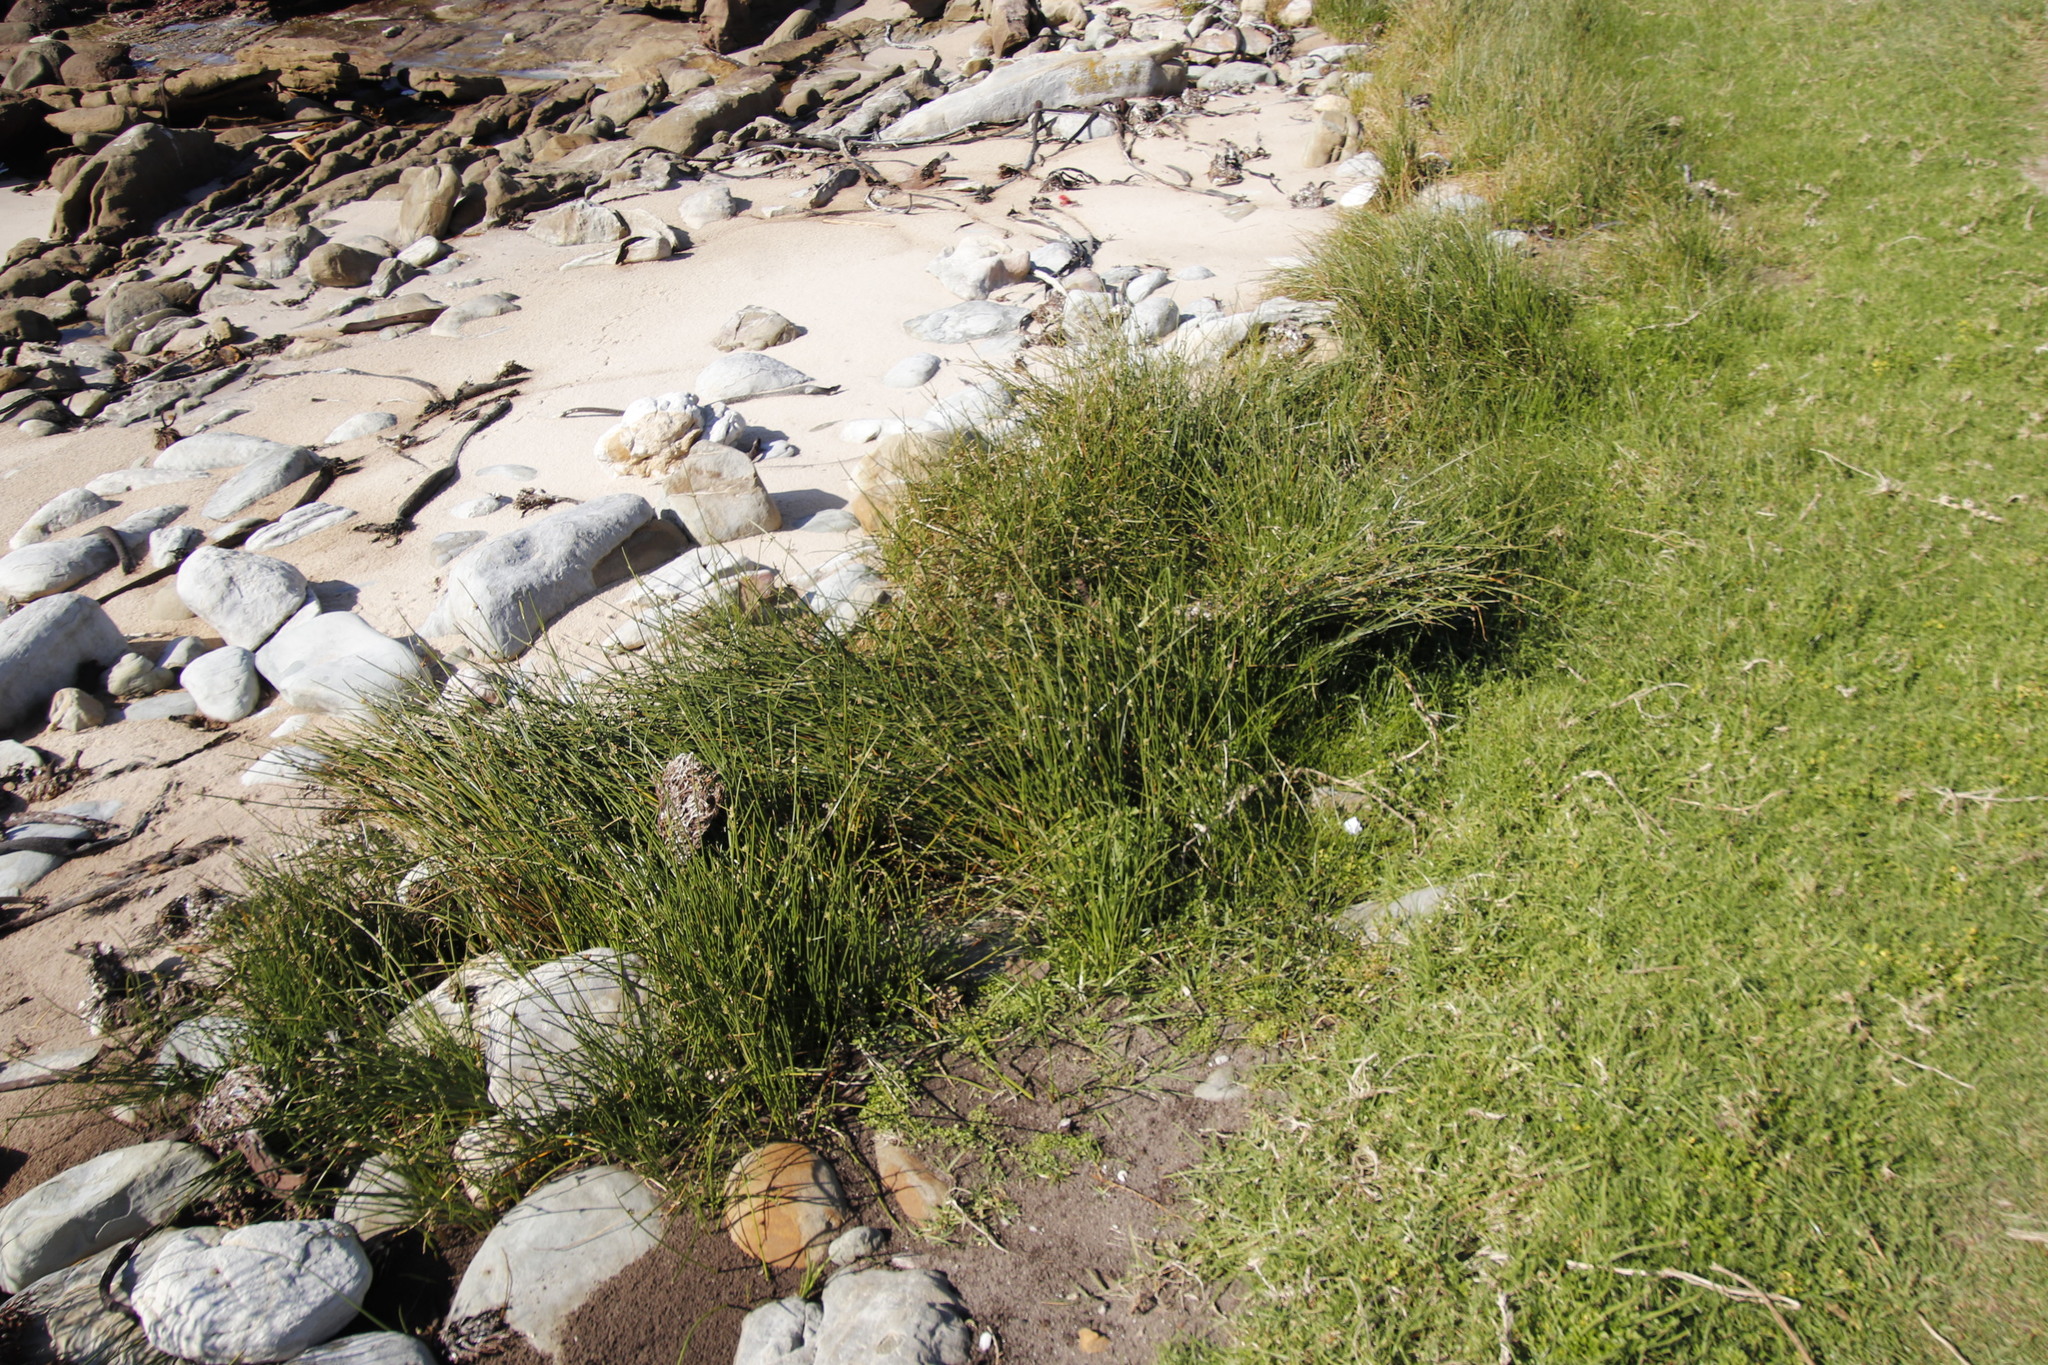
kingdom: Plantae
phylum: Tracheophyta
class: Liliopsida
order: Poales
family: Cyperaceae
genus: Cyperus
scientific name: Cyperus laevigatus
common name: Smooth flat sedge
